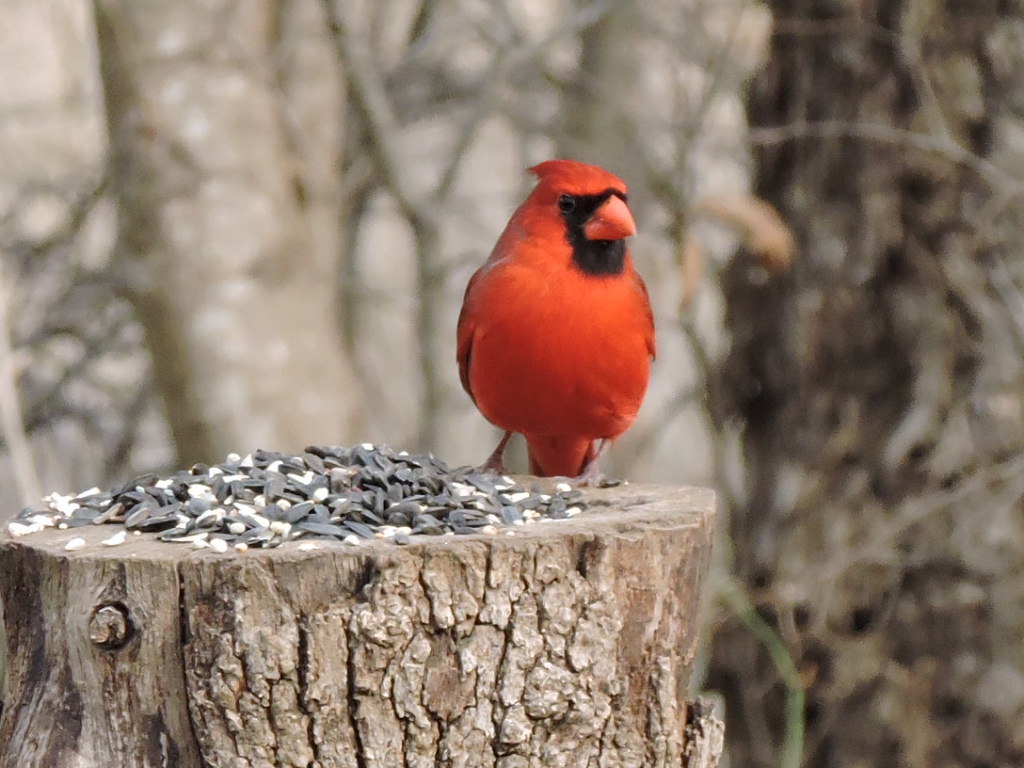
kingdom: Animalia
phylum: Chordata
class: Aves
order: Passeriformes
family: Cardinalidae
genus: Cardinalis
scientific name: Cardinalis cardinalis
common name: Northern cardinal
